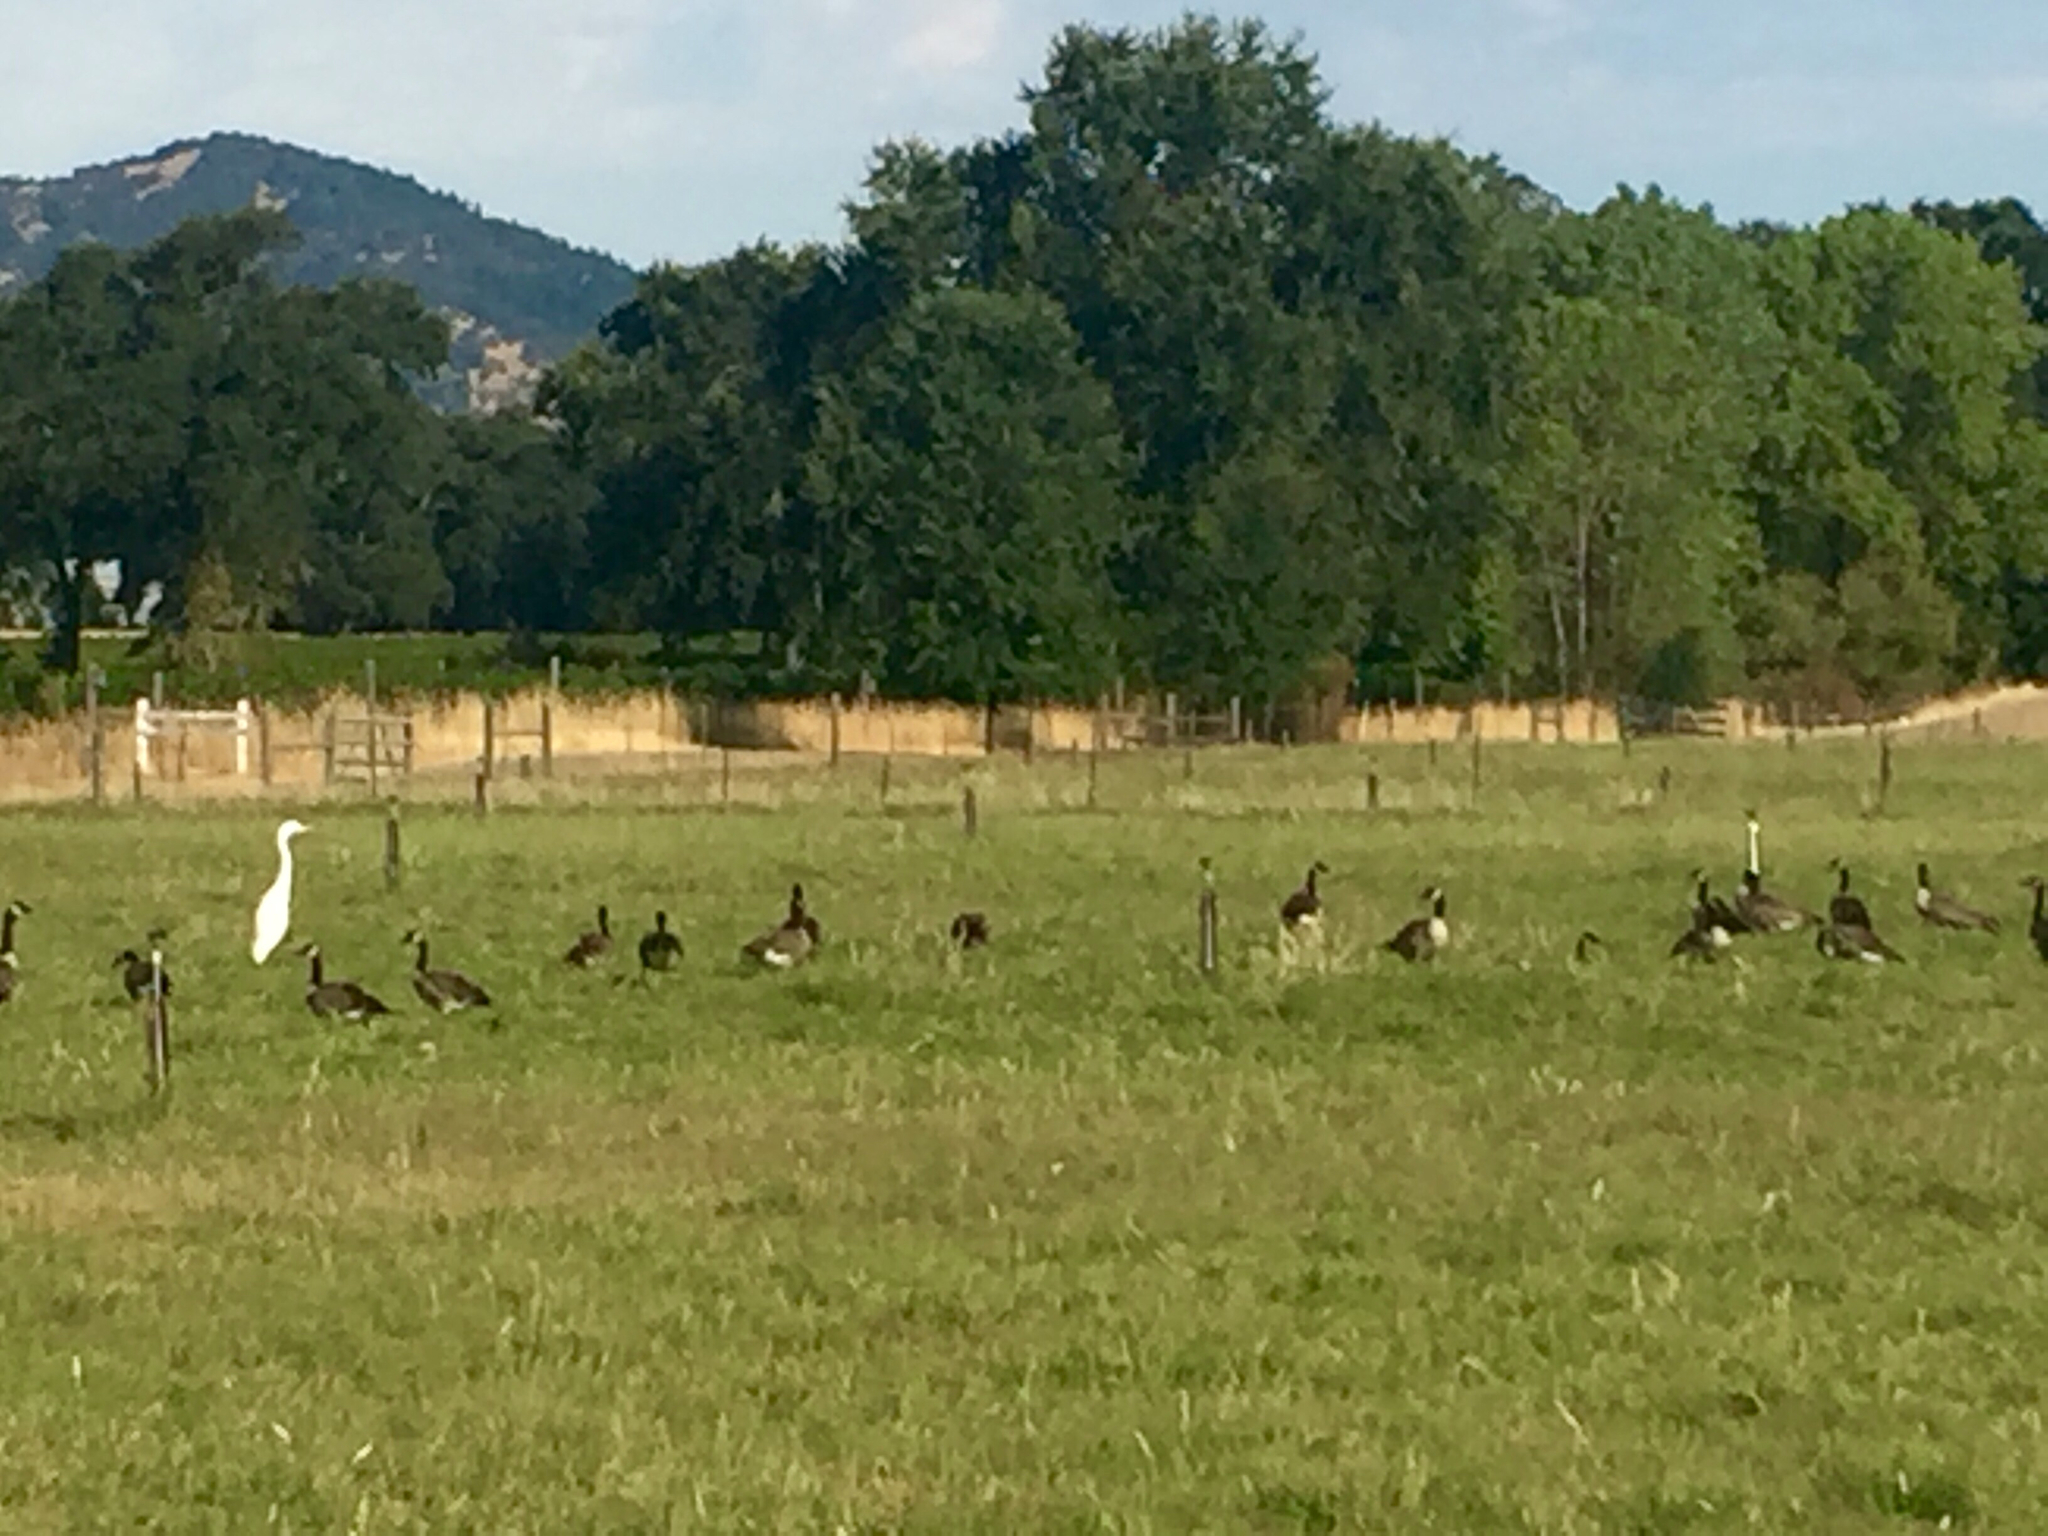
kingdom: Animalia
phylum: Chordata
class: Aves
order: Anseriformes
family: Anatidae
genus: Branta
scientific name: Branta canadensis
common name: Canada goose
